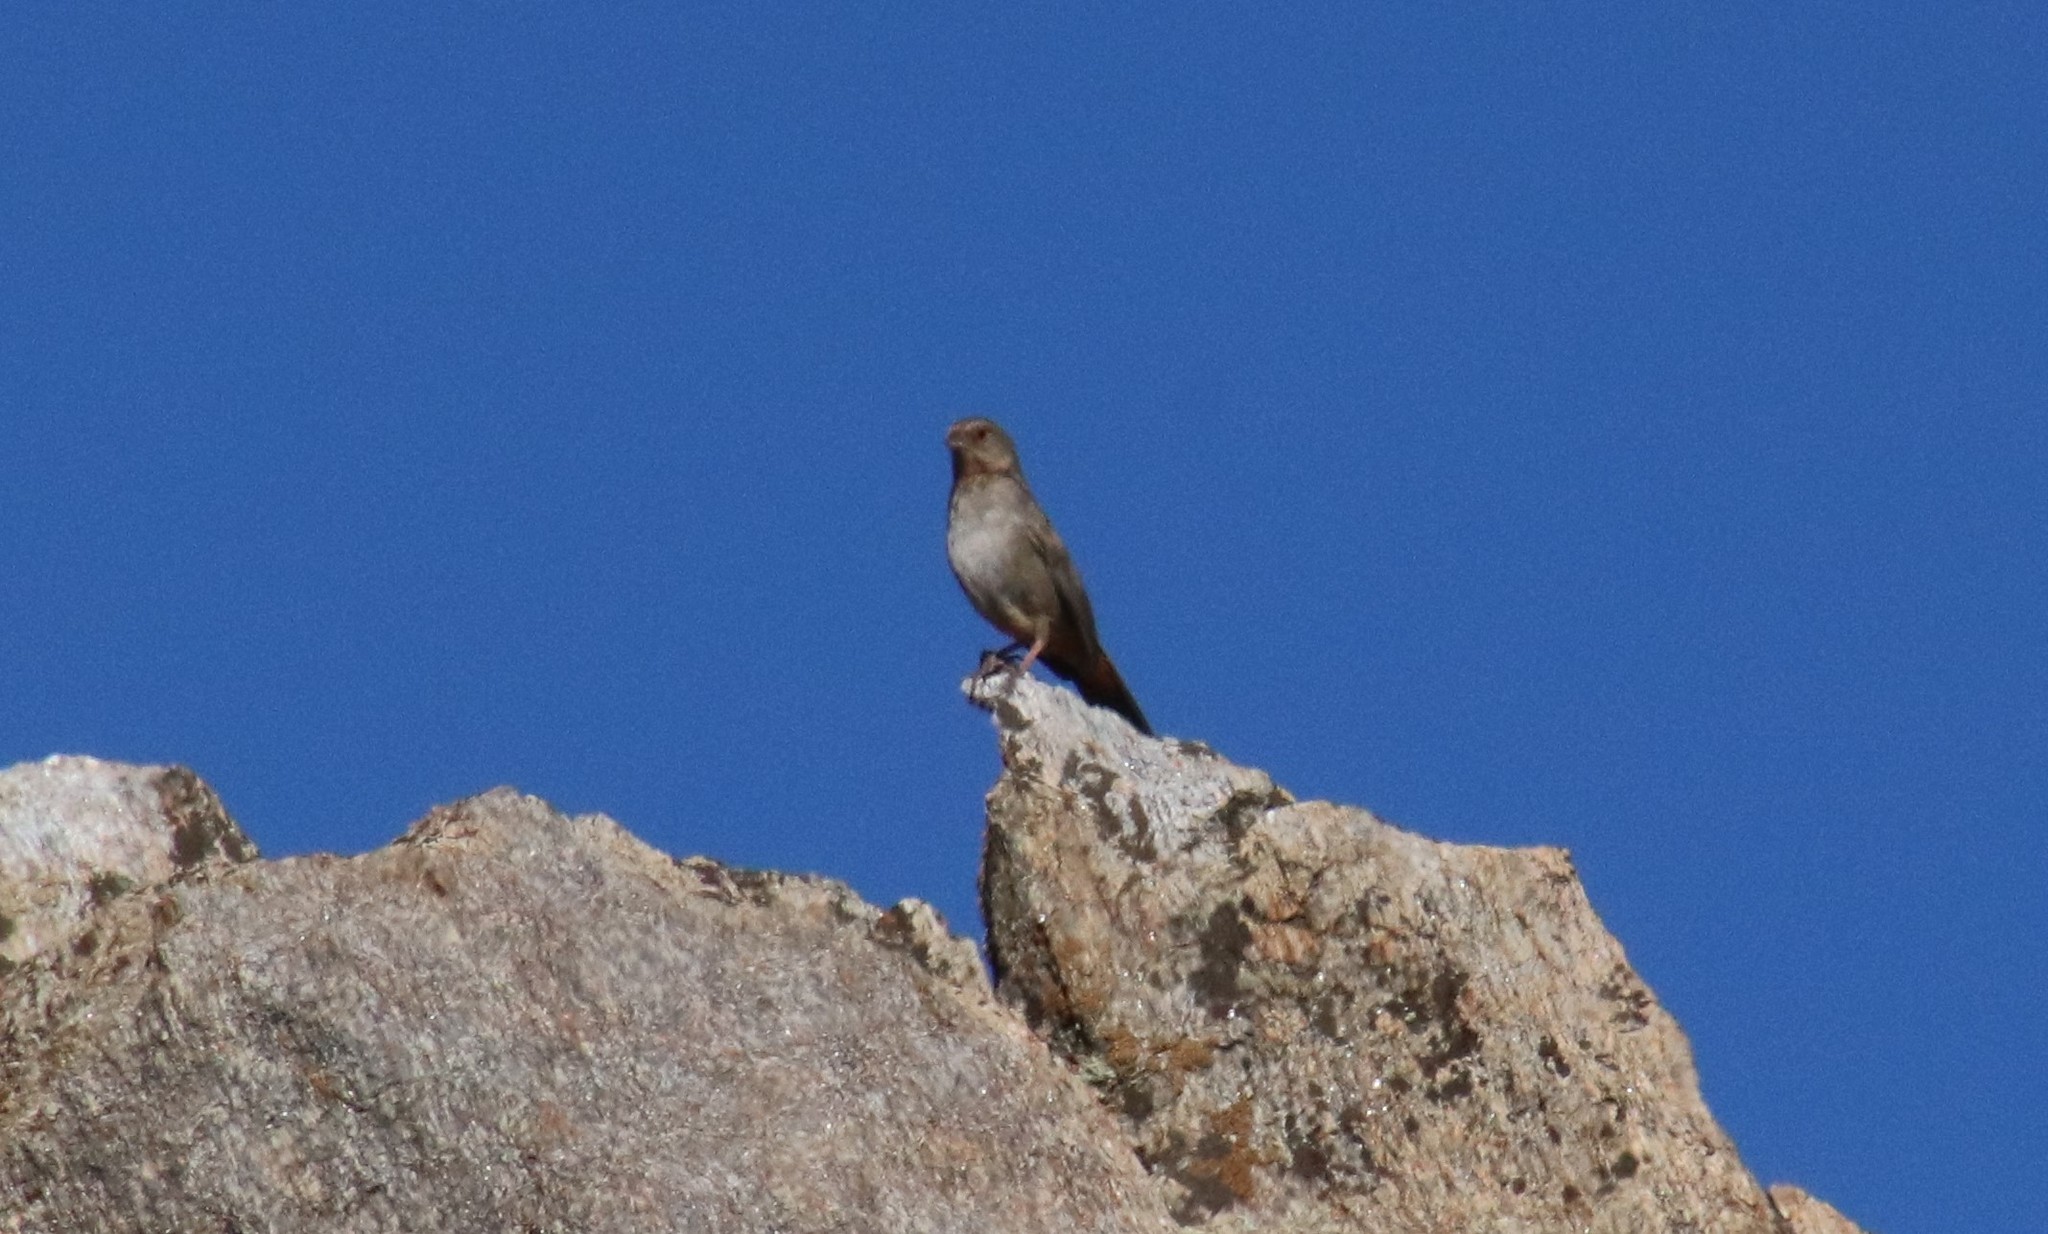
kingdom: Animalia
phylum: Chordata
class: Aves
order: Passeriformes
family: Passerellidae
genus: Melozone
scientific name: Melozone crissalis
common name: California towhee
